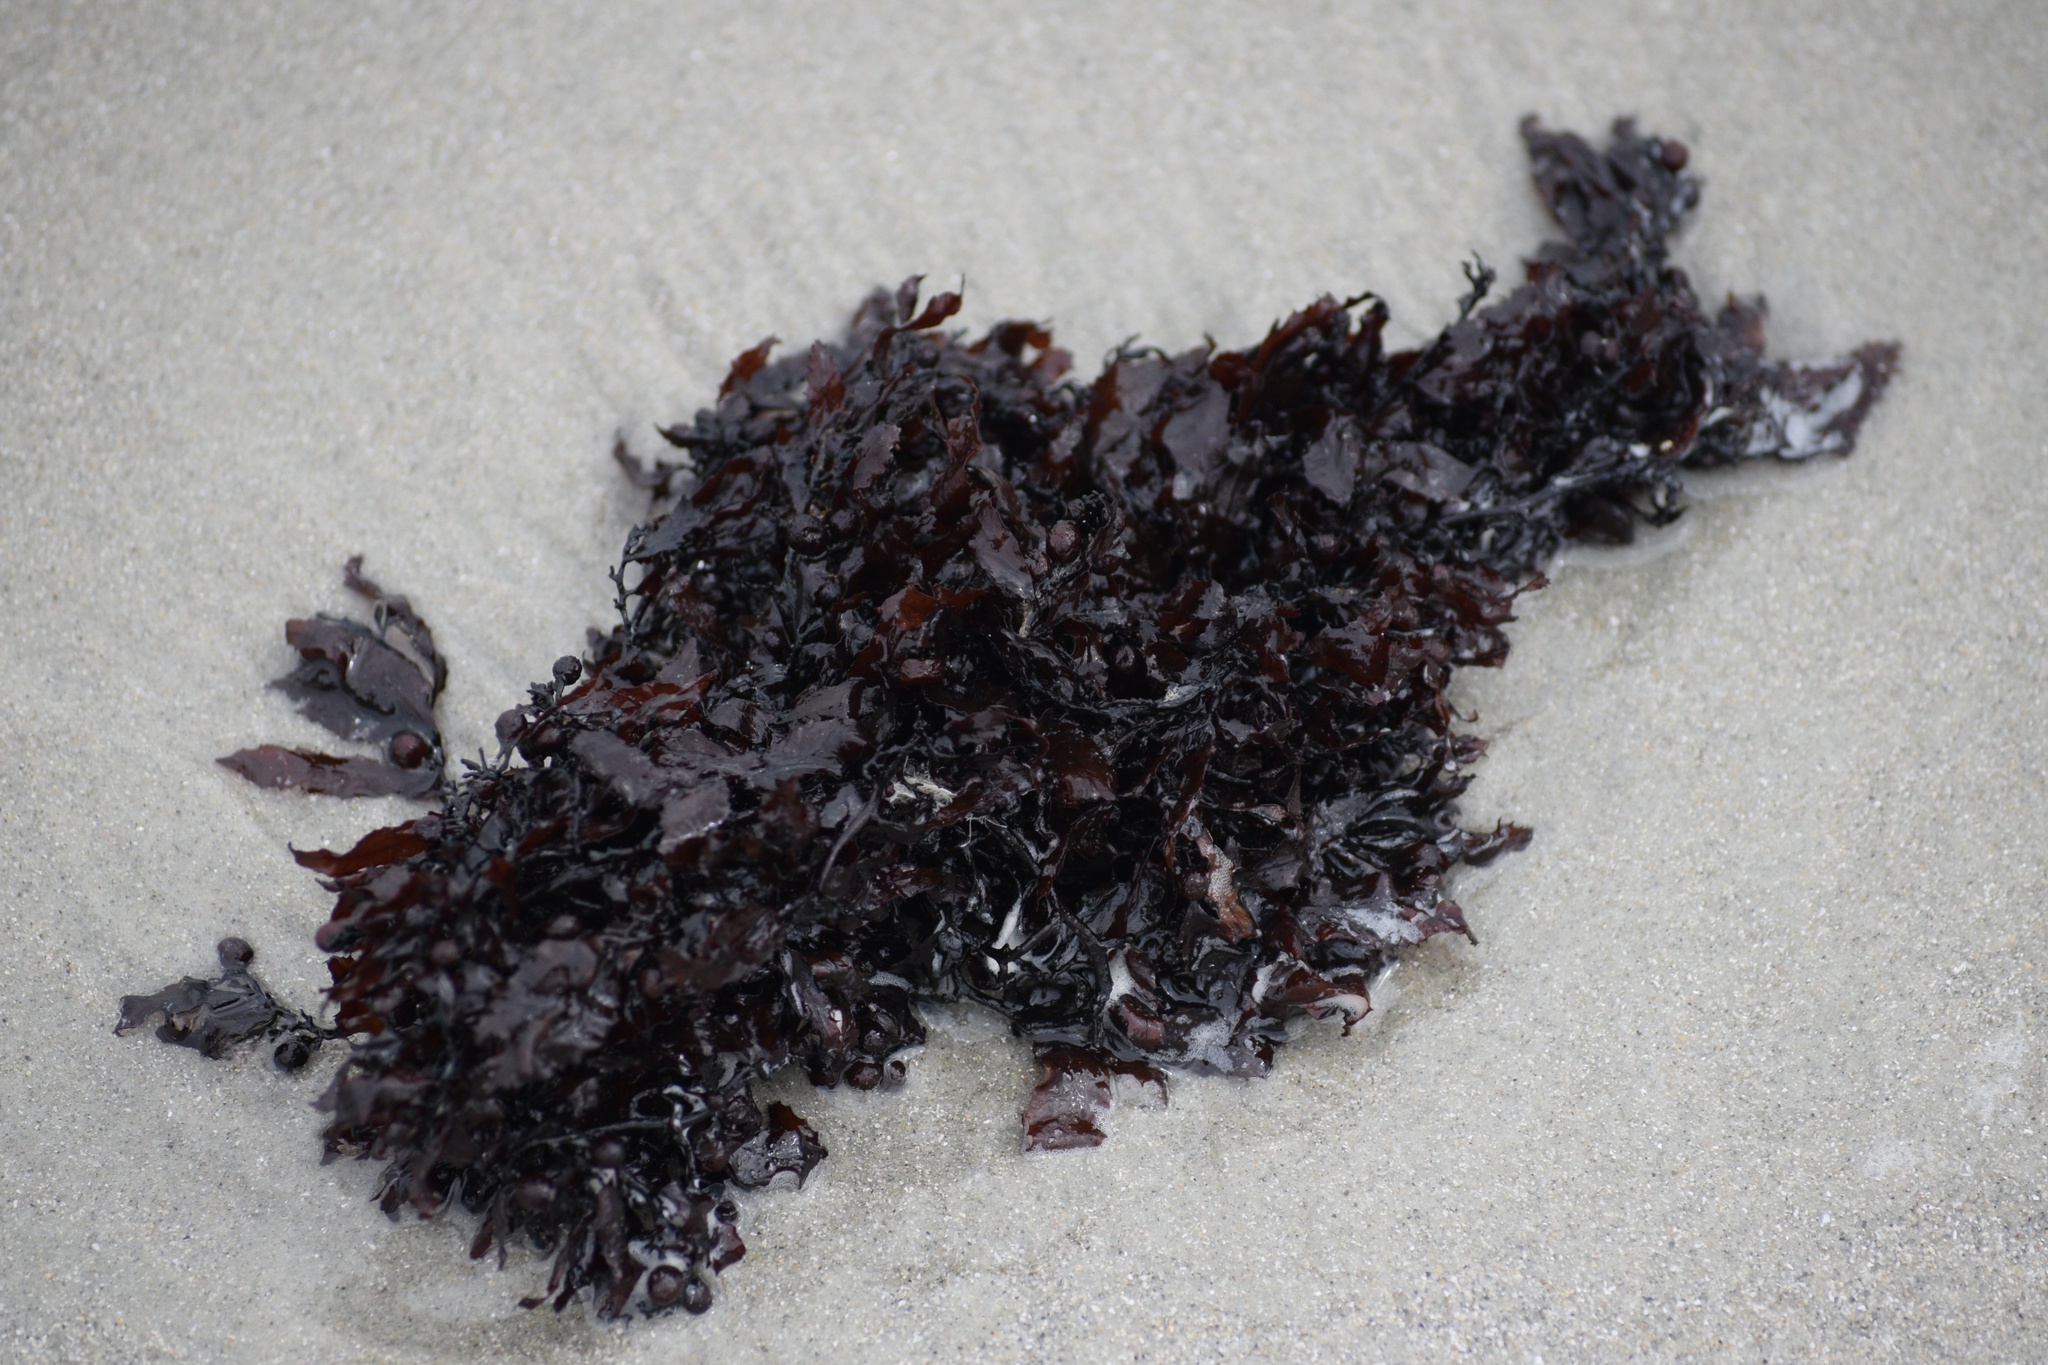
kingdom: Chromista
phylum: Ochrophyta
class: Phaeophyceae
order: Fucales
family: Sargassaceae
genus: Sargassum
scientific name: Sargassum fluitans
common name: Sargassum seaweed
